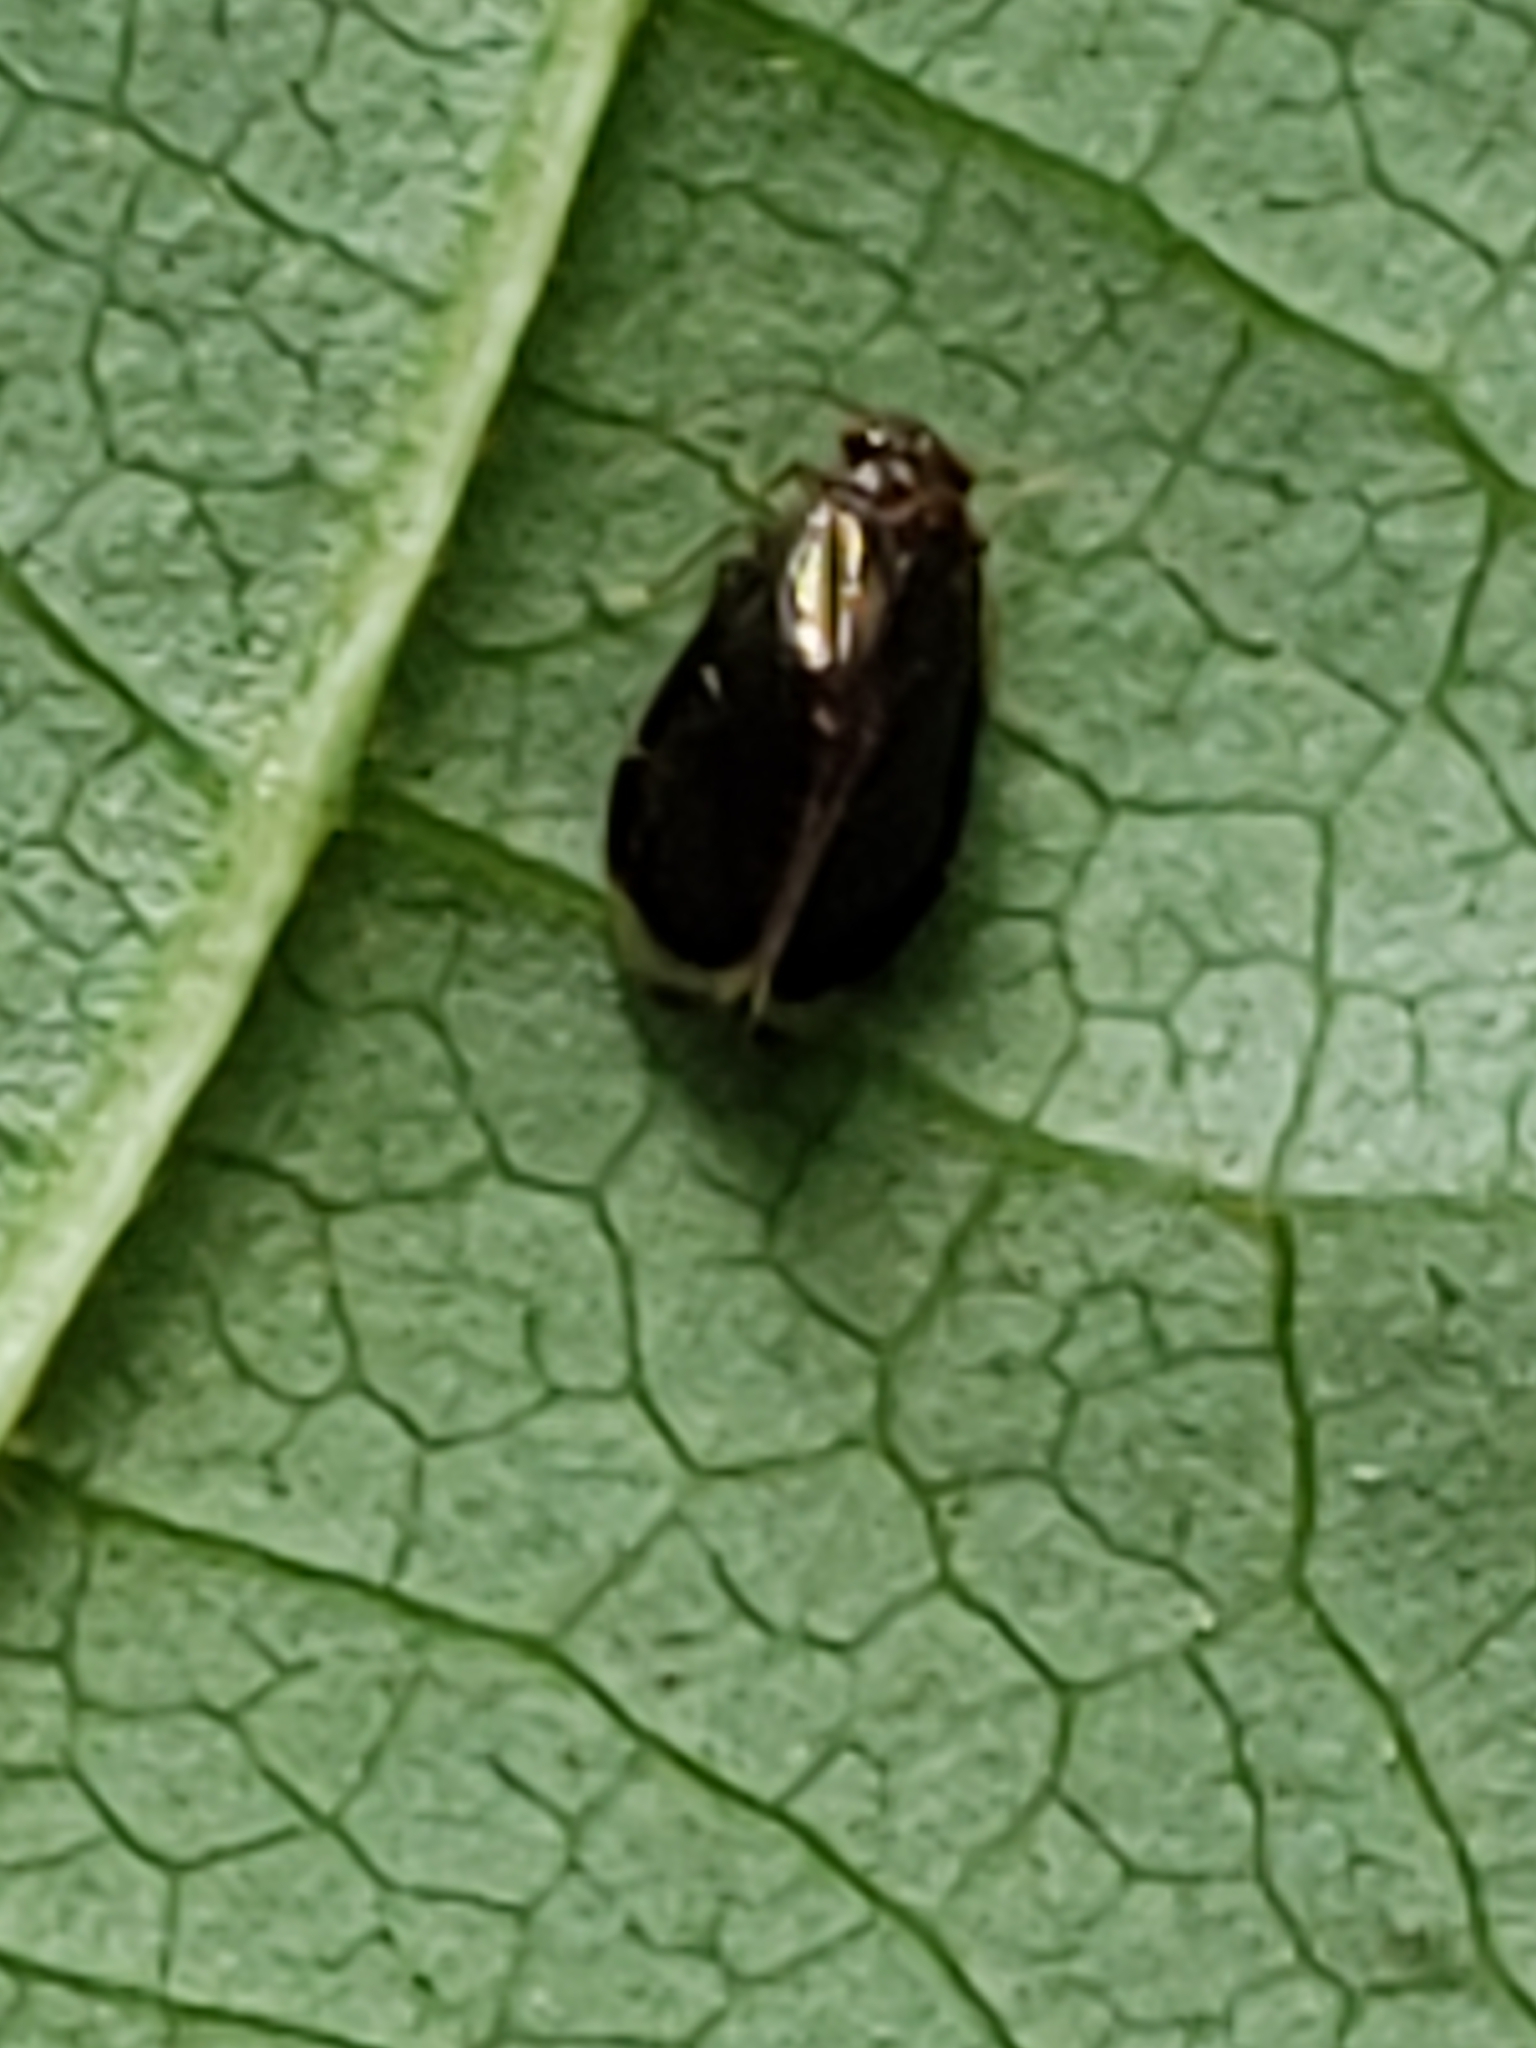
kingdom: Animalia
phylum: Arthropoda
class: Insecta
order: Psocodea
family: Amphipsocidae
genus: Polypsocus
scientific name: Polypsocus corruptus
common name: Corrupt barklouse
